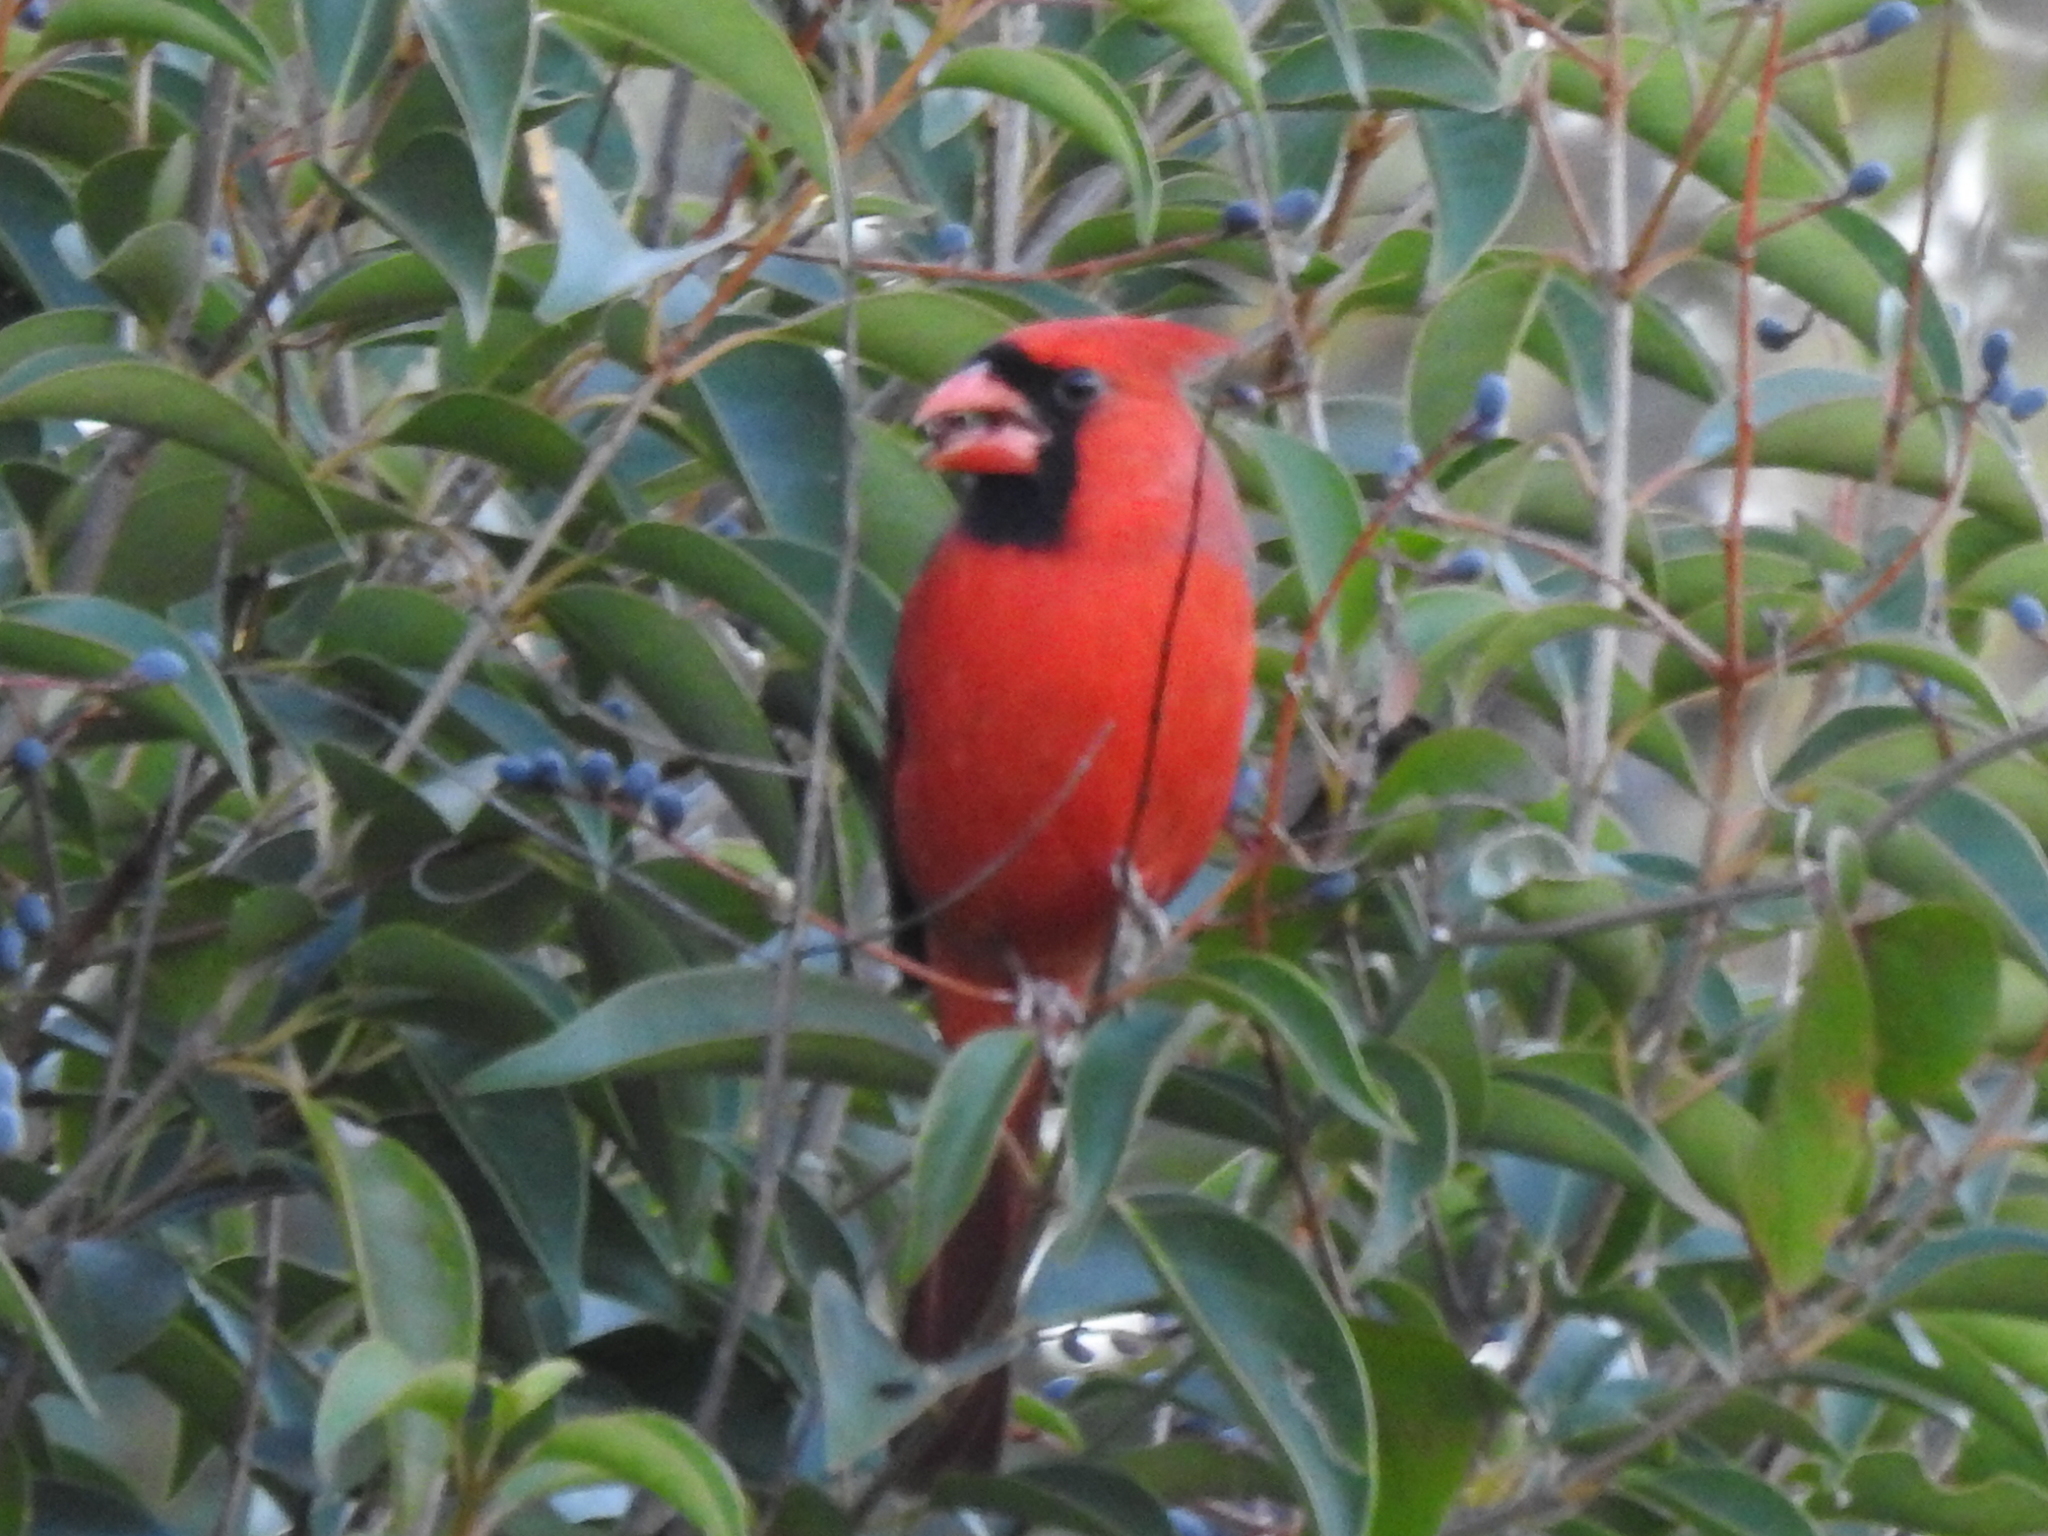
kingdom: Animalia
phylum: Chordata
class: Aves
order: Passeriformes
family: Cardinalidae
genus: Cardinalis
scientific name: Cardinalis cardinalis
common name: Northern cardinal
